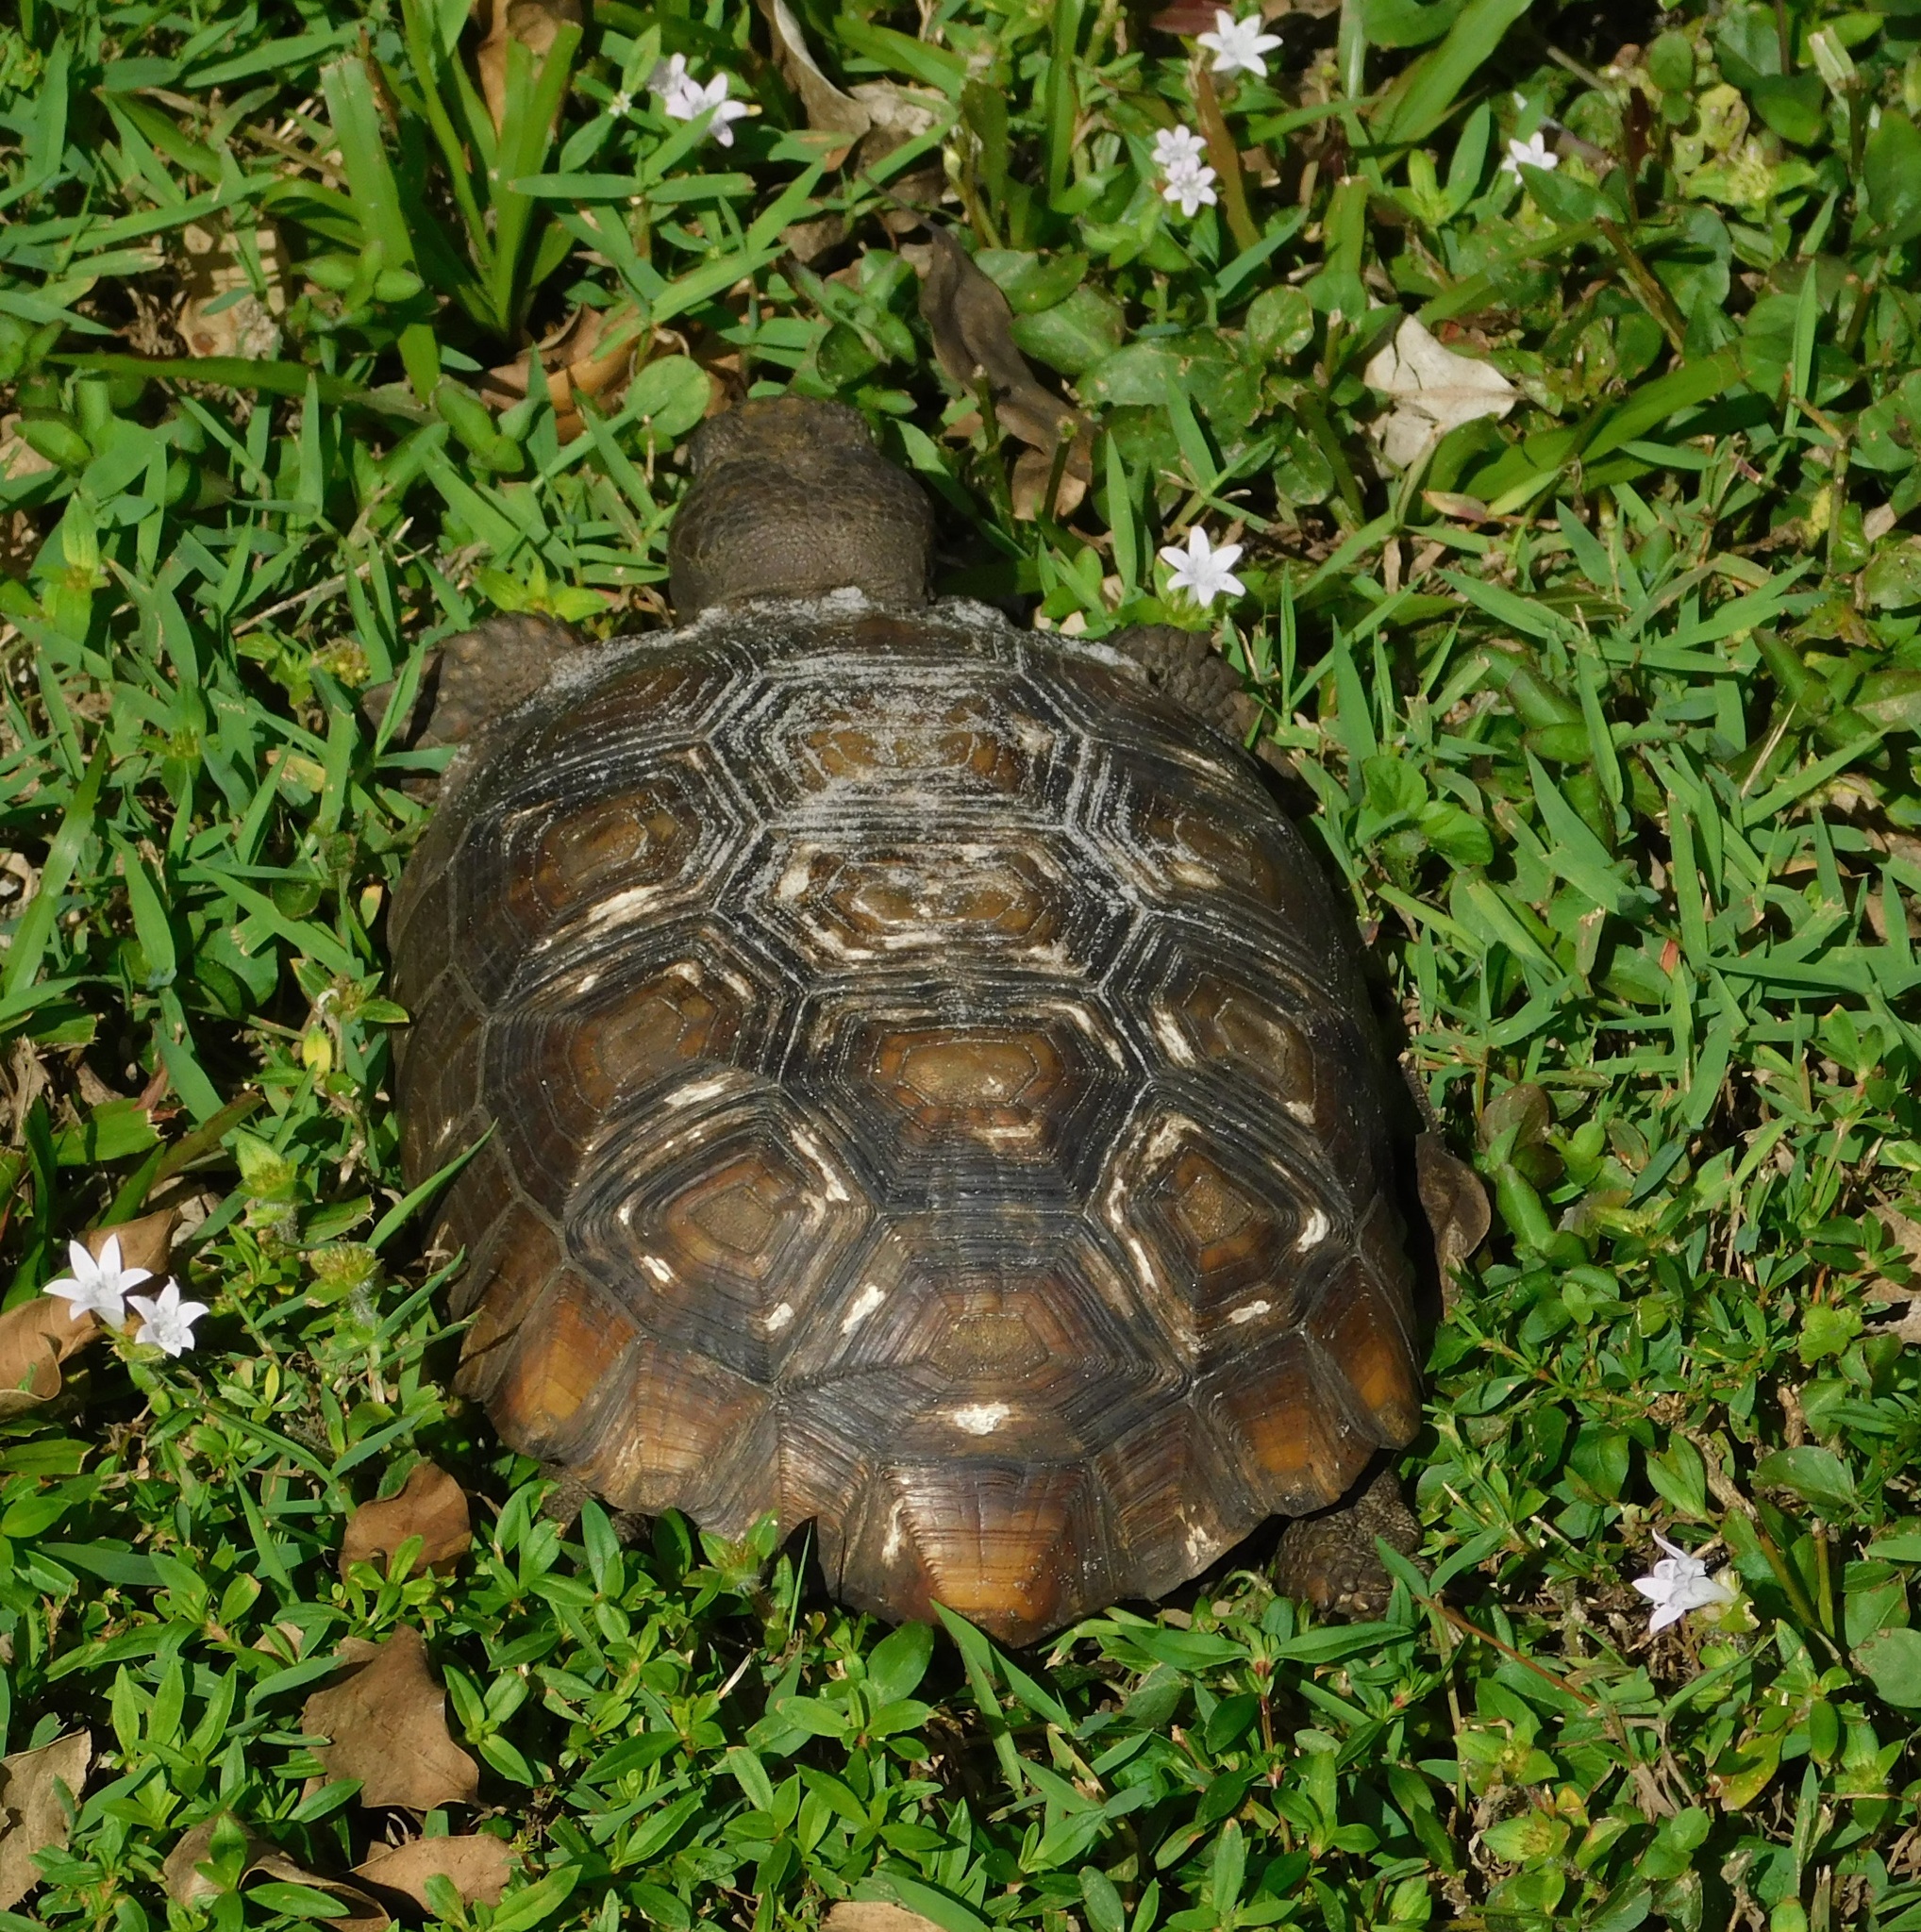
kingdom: Animalia
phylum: Chordata
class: Testudines
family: Testudinidae
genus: Gopherus
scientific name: Gopherus polyphemus
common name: Florida gopher tortoise
